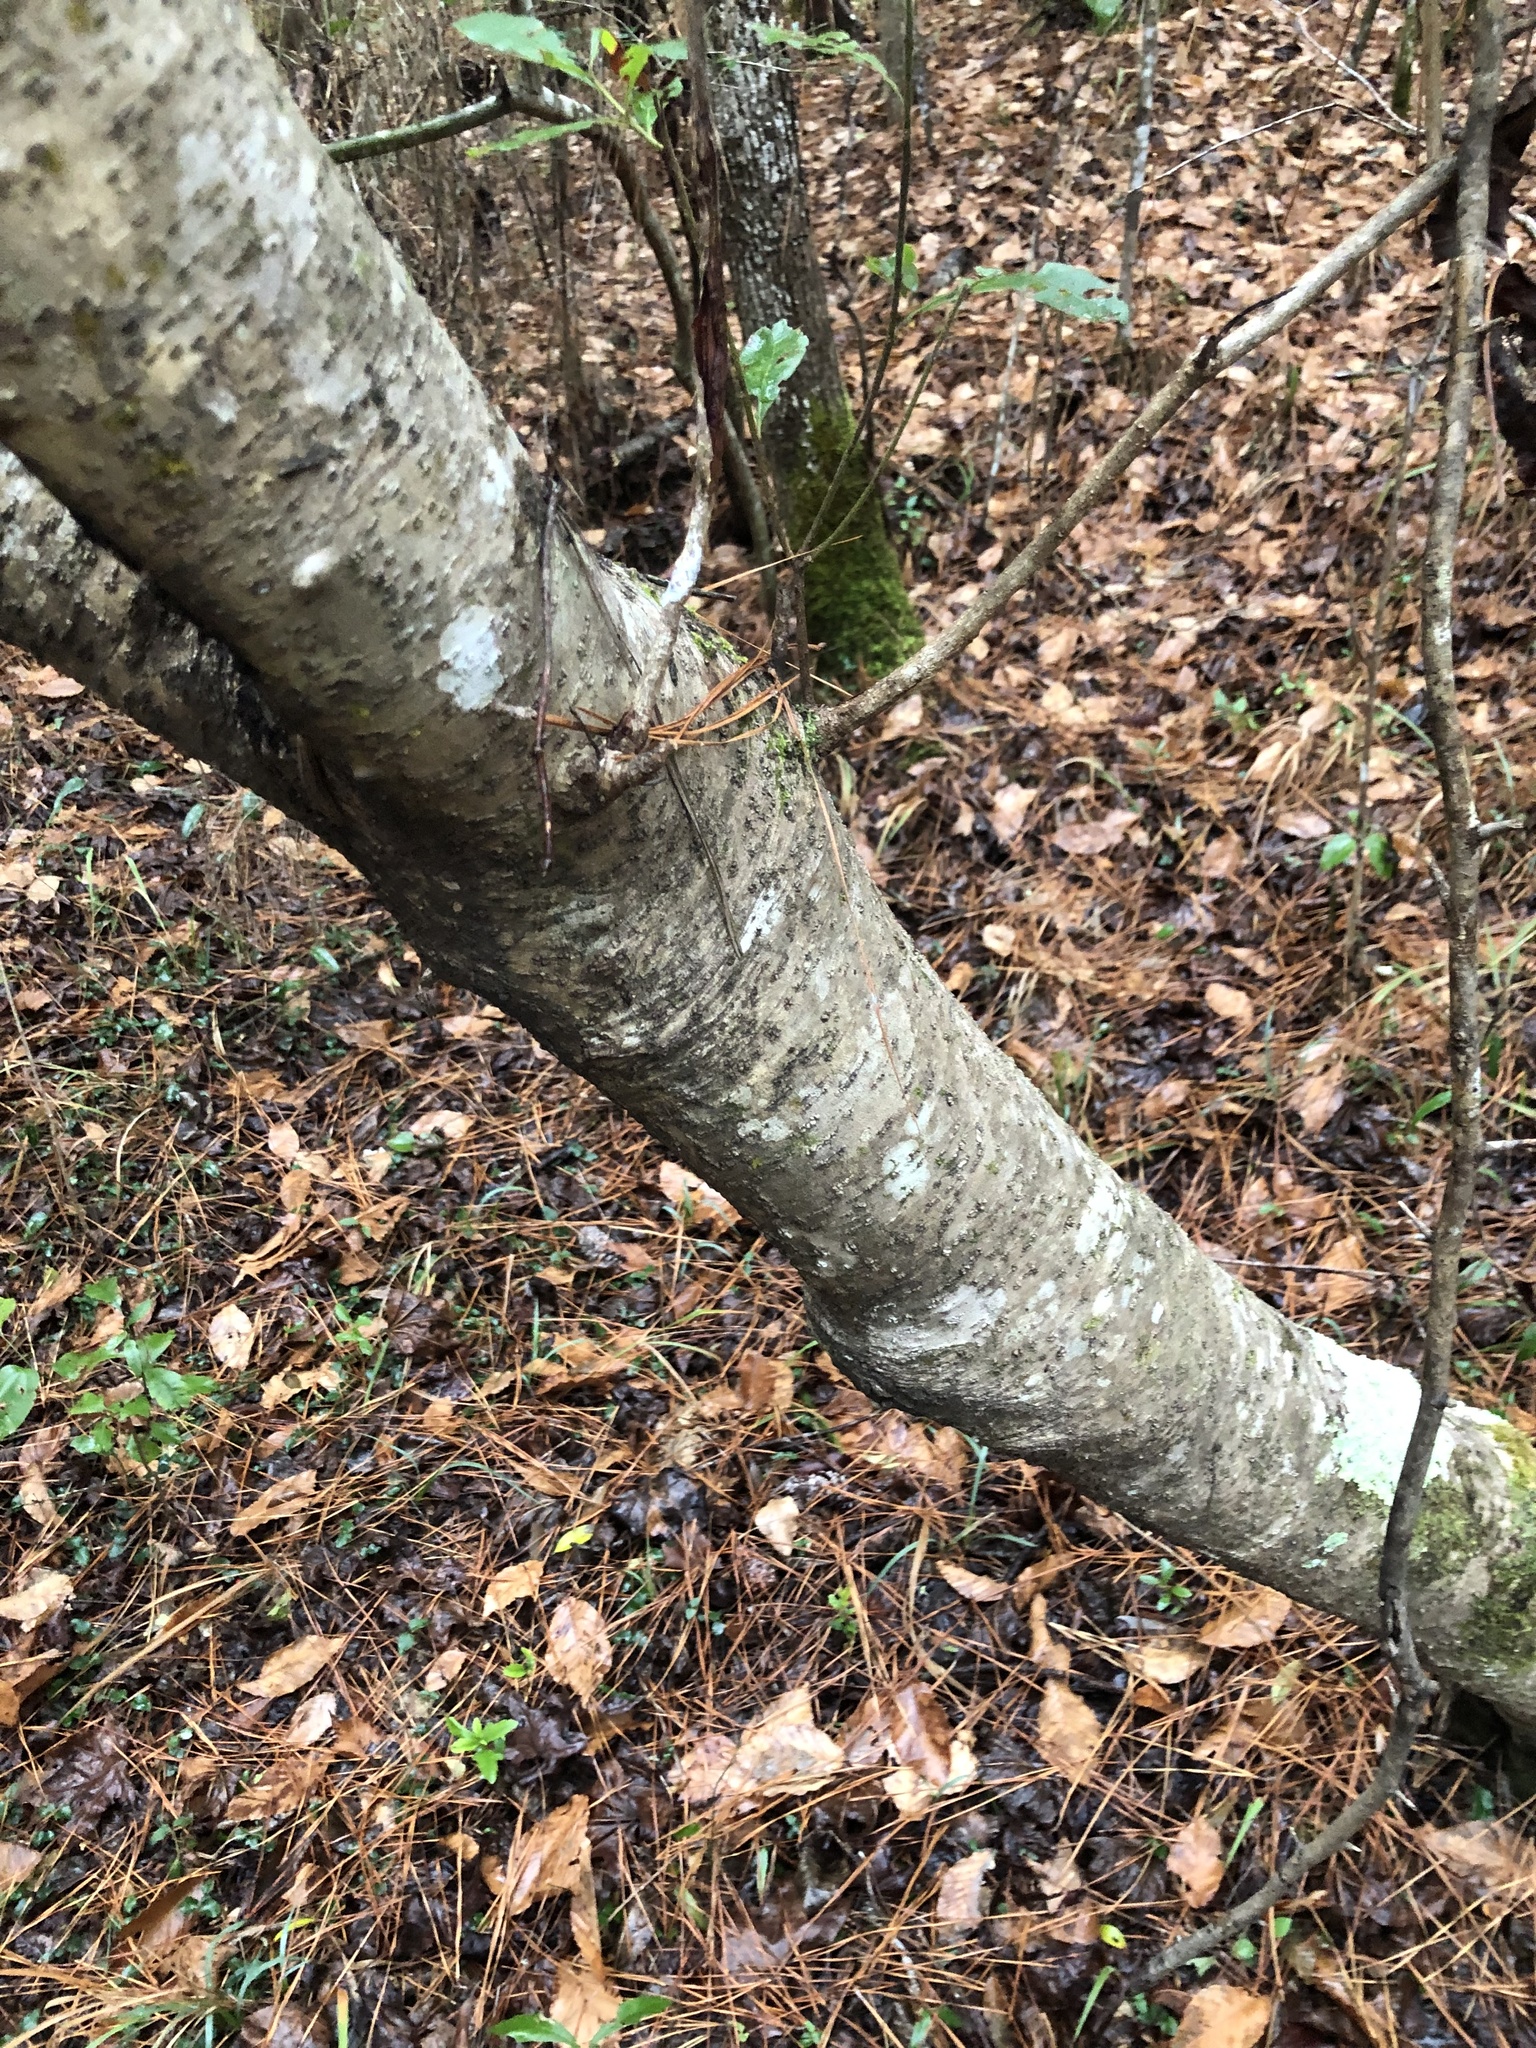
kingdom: Plantae
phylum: Tracheophyta
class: Magnoliopsida
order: Fagales
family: Myricaceae
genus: Morella
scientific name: Morella cerifera
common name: Wax myrtle
